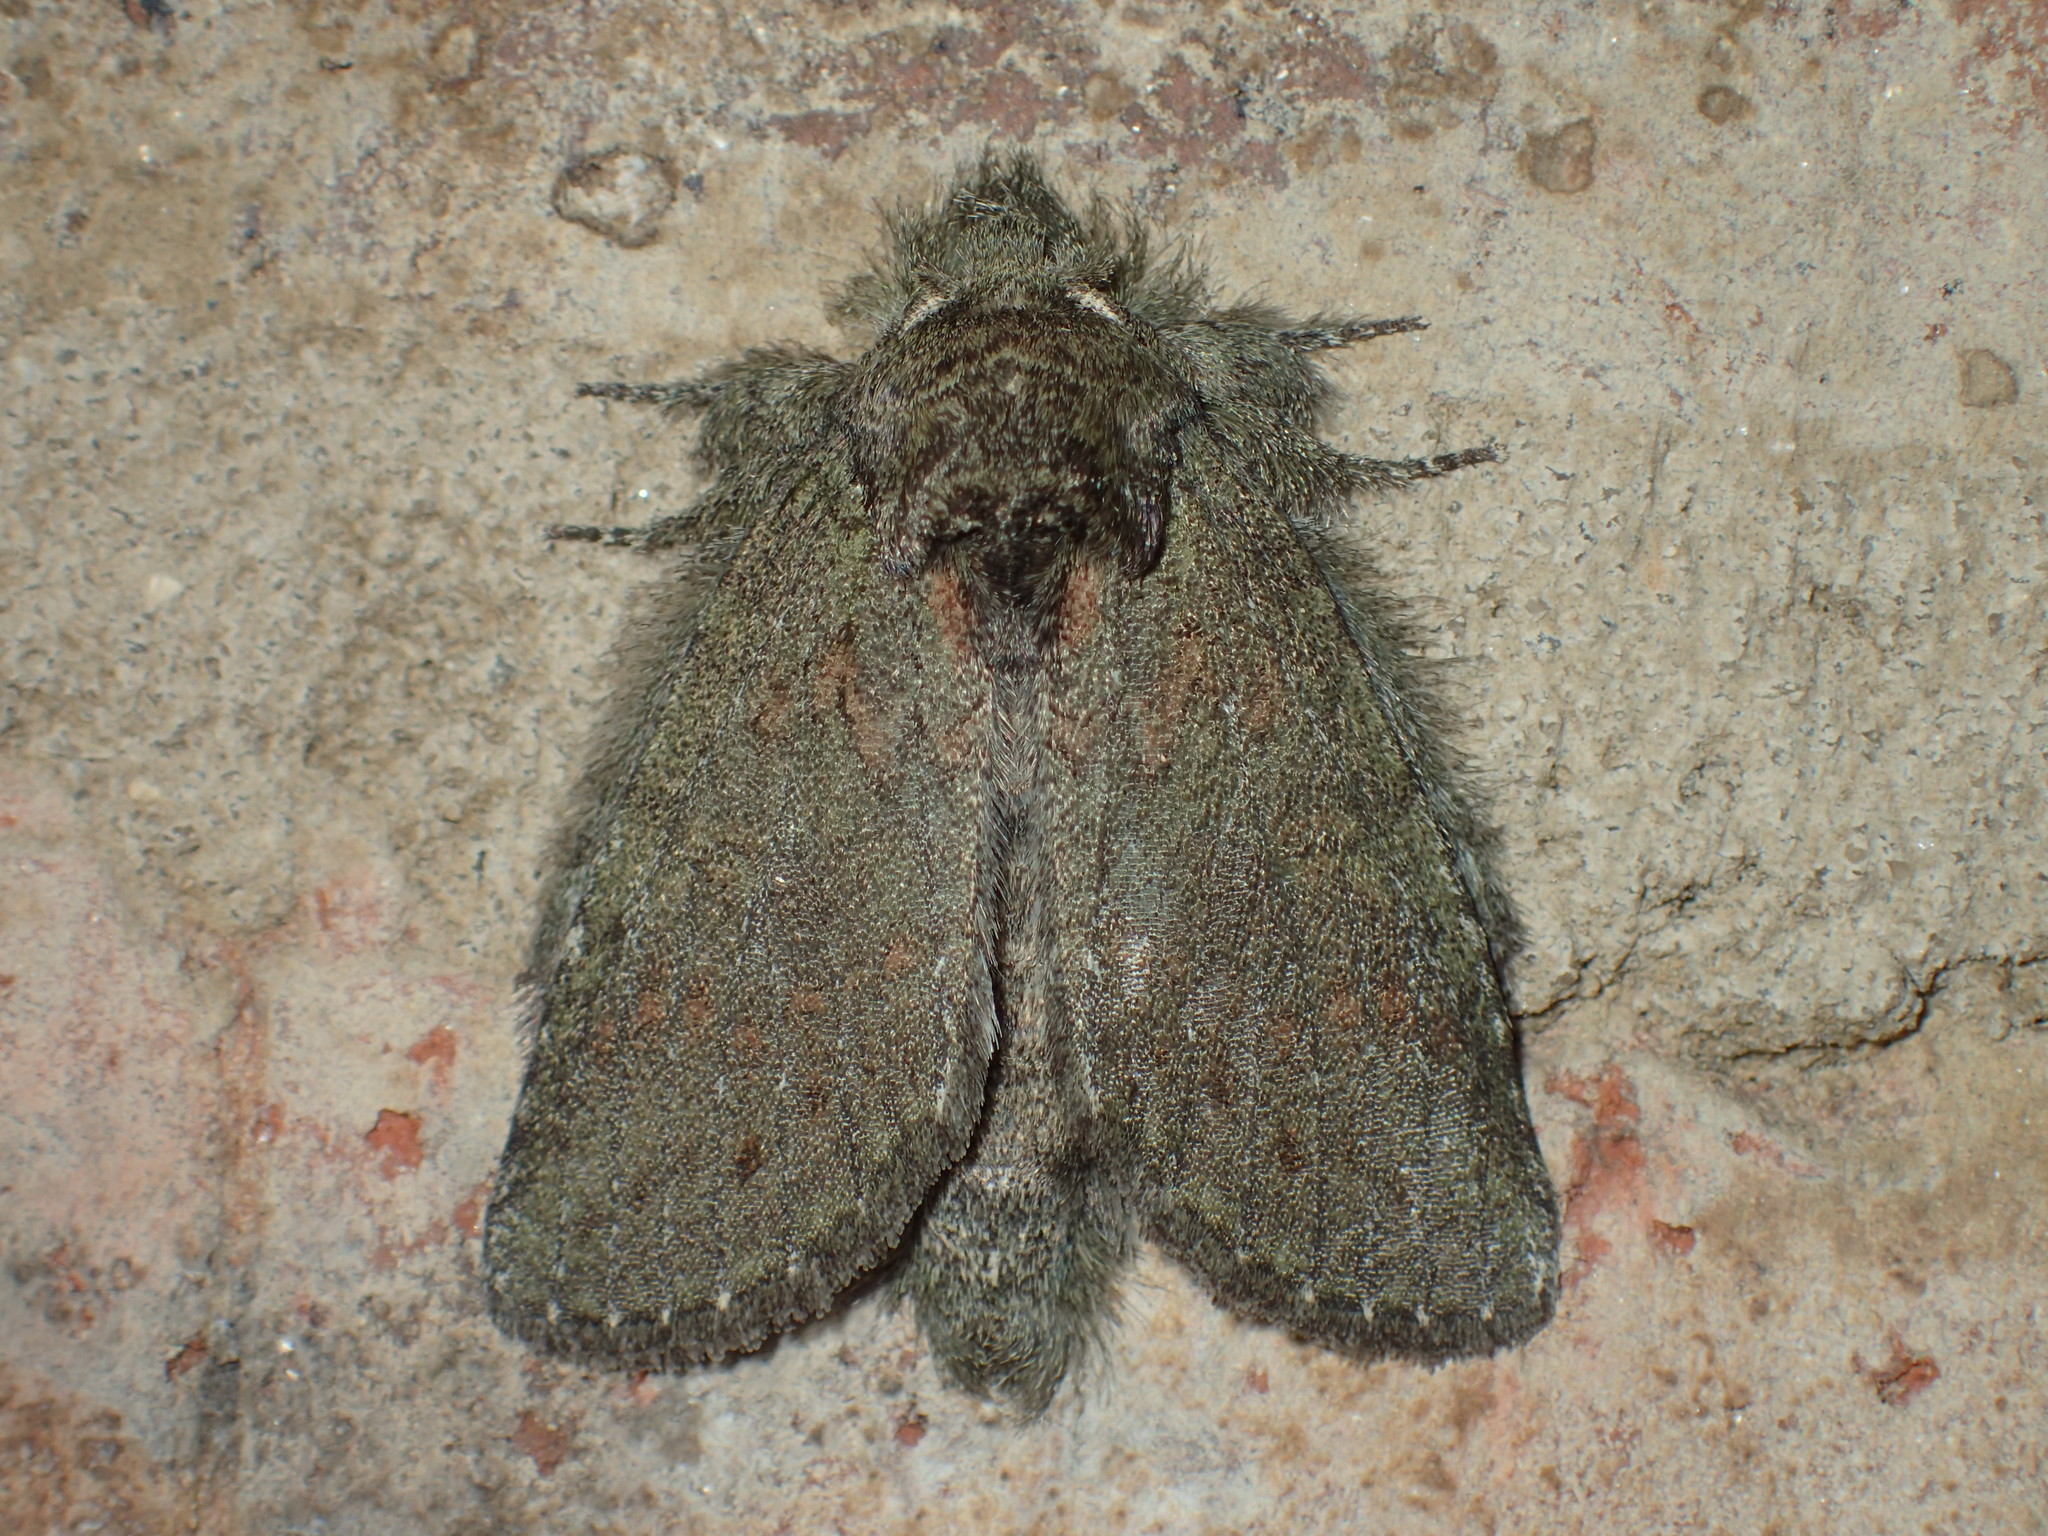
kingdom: Animalia
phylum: Arthropoda
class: Insecta
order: Lepidoptera
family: Notodontidae
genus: Disphragis
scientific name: Disphragis Cecrita biundata
